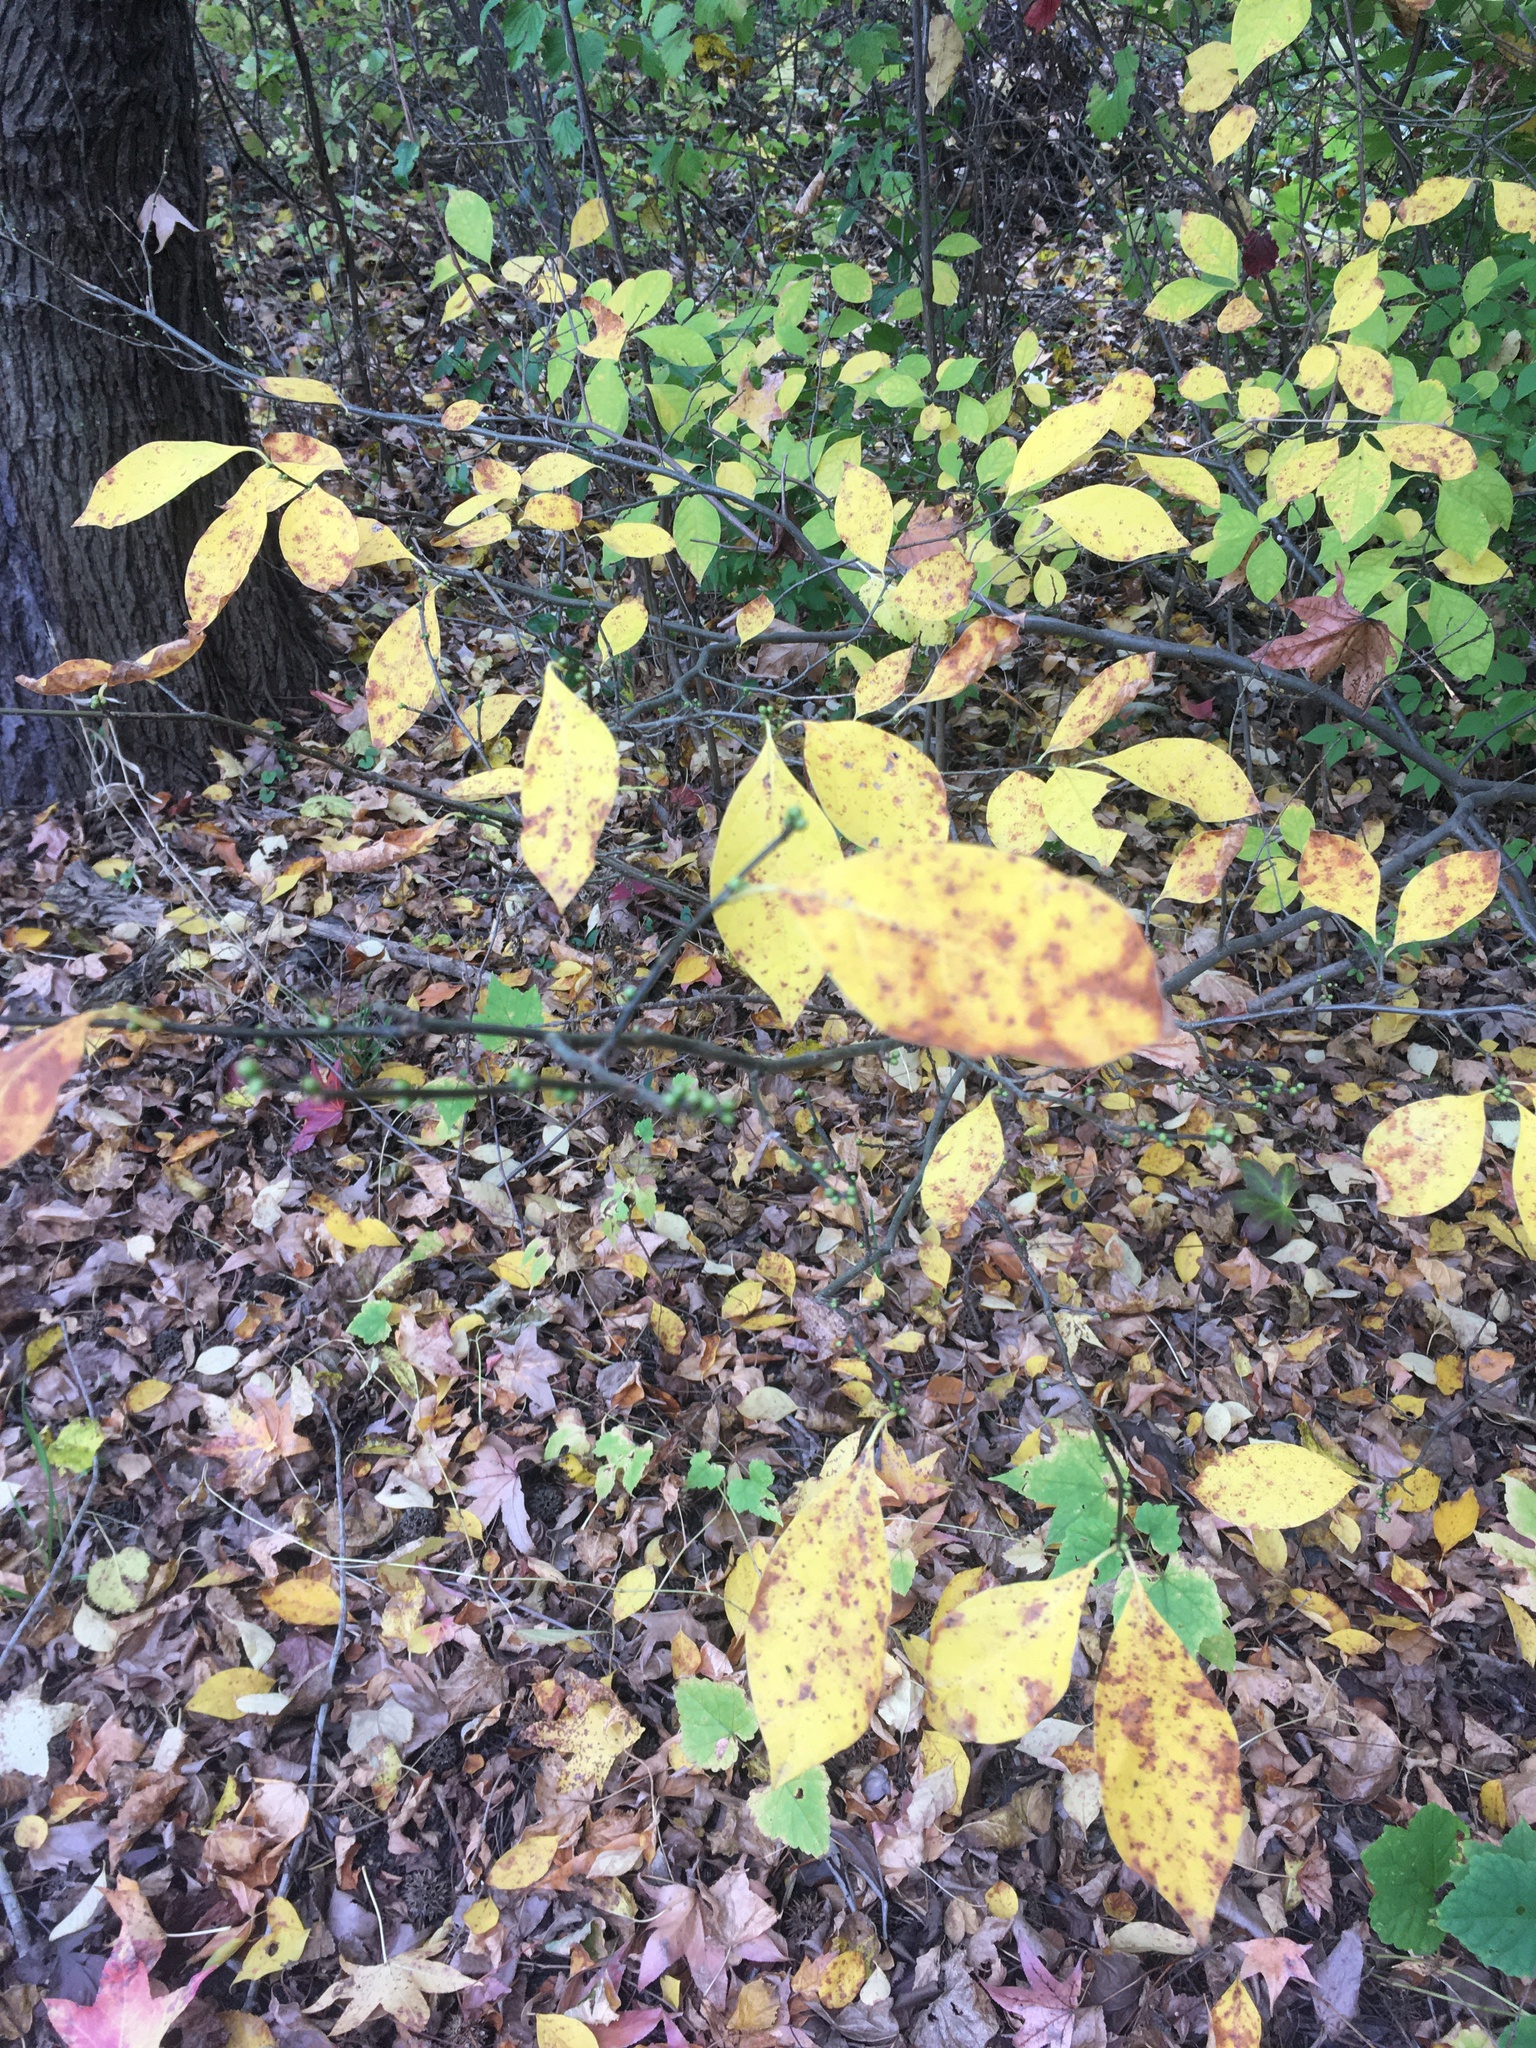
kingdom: Plantae
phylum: Tracheophyta
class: Magnoliopsida
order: Laurales
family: Lauraceae
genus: Lindera
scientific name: Lindera benzoin
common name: Spicebush
